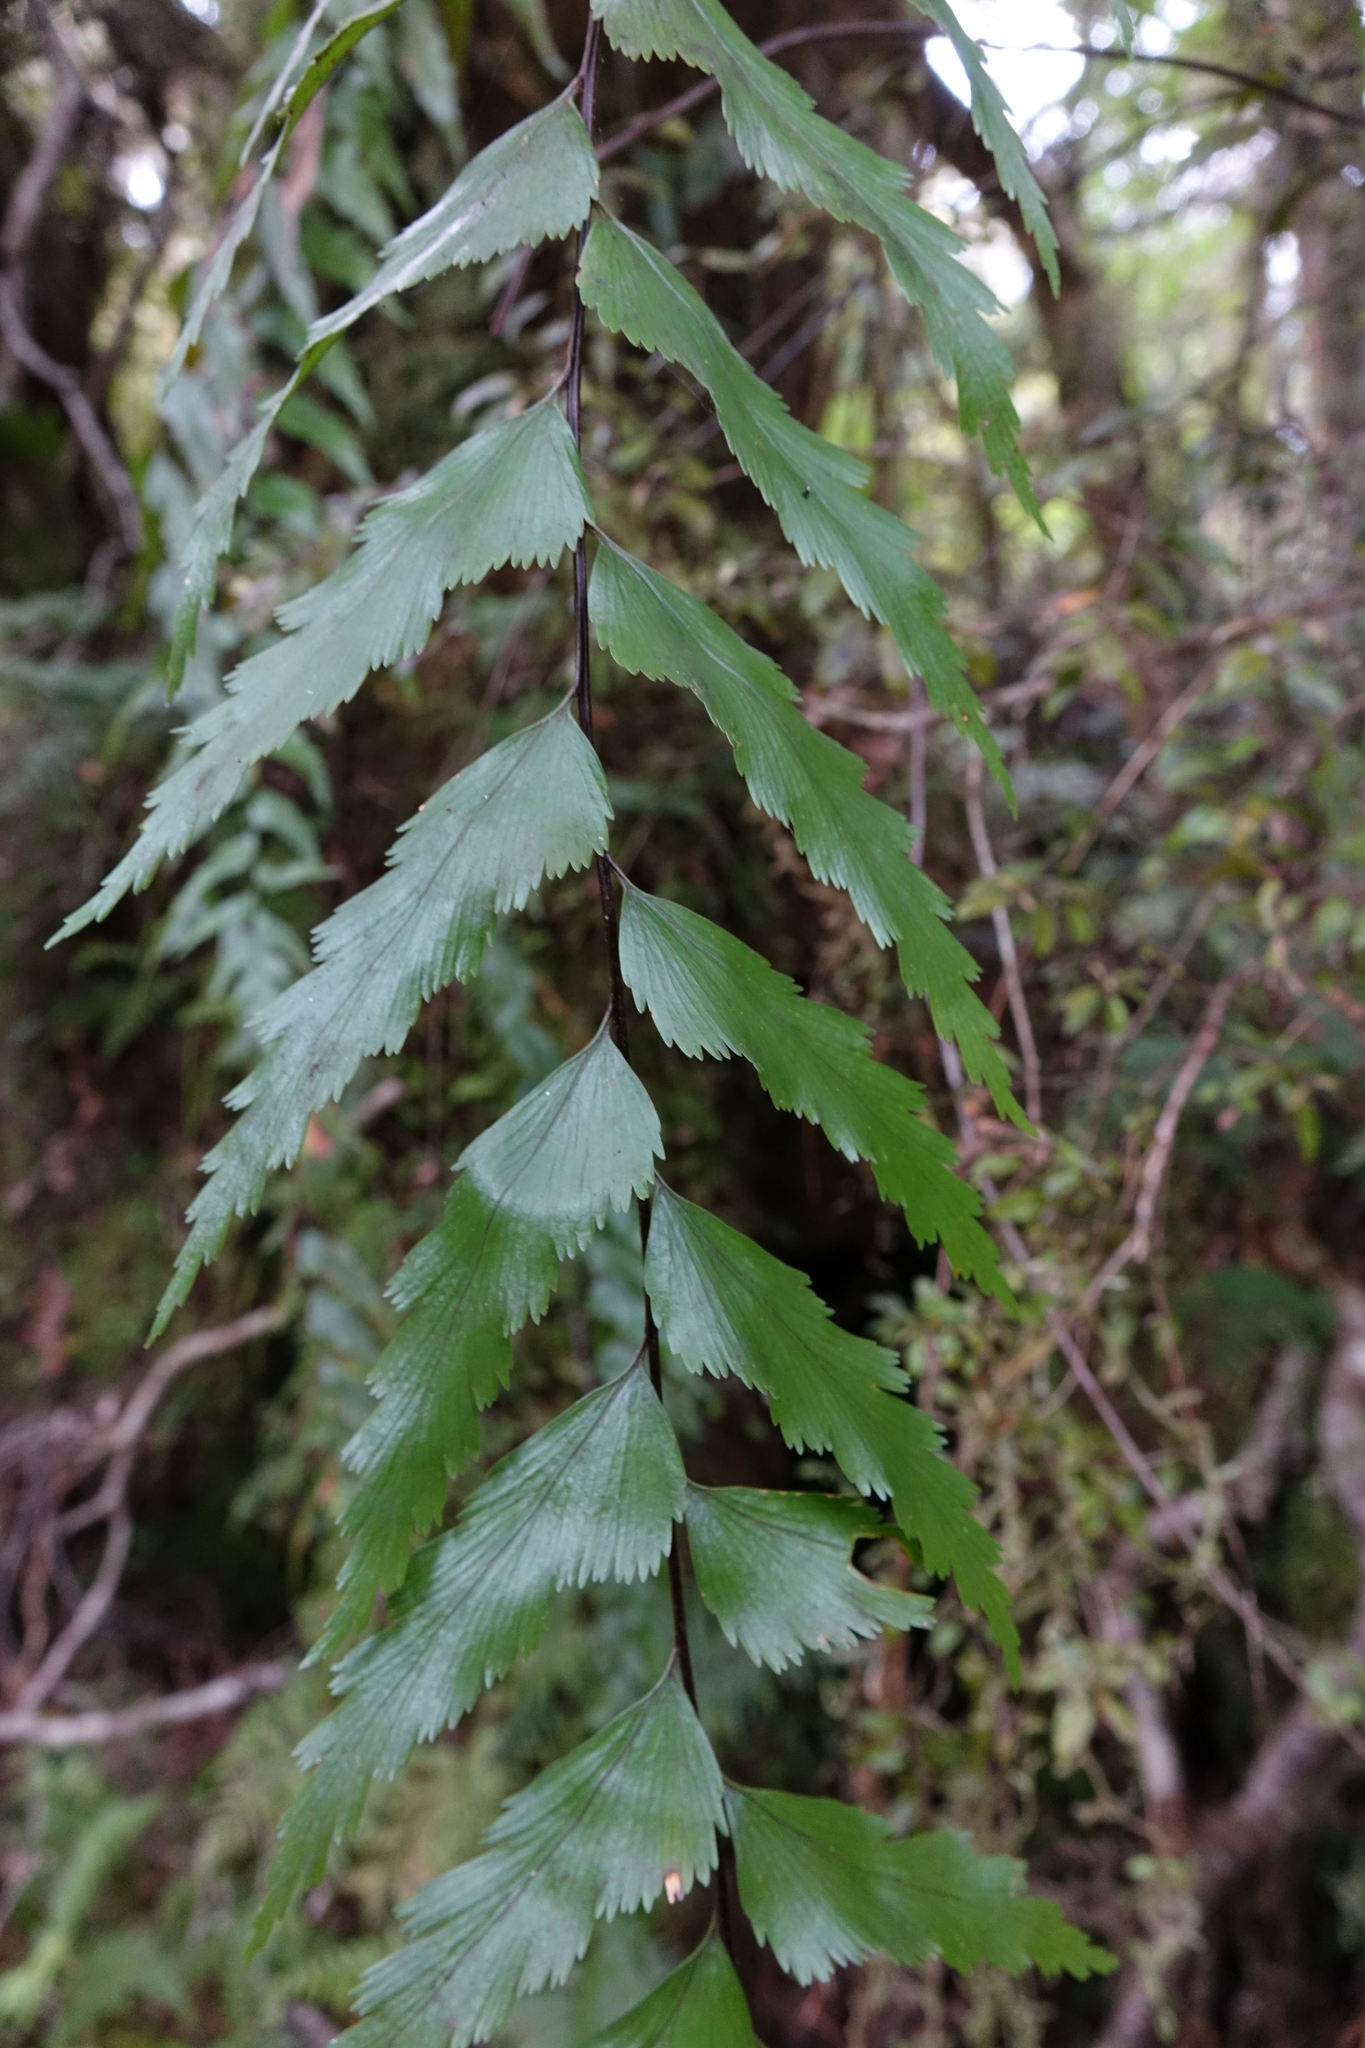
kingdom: Plantae
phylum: Tracheophyta
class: Polypodiopsida
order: Polypodiales
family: Aspleniaceae
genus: Asplenium
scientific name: Asplenium polyodon
